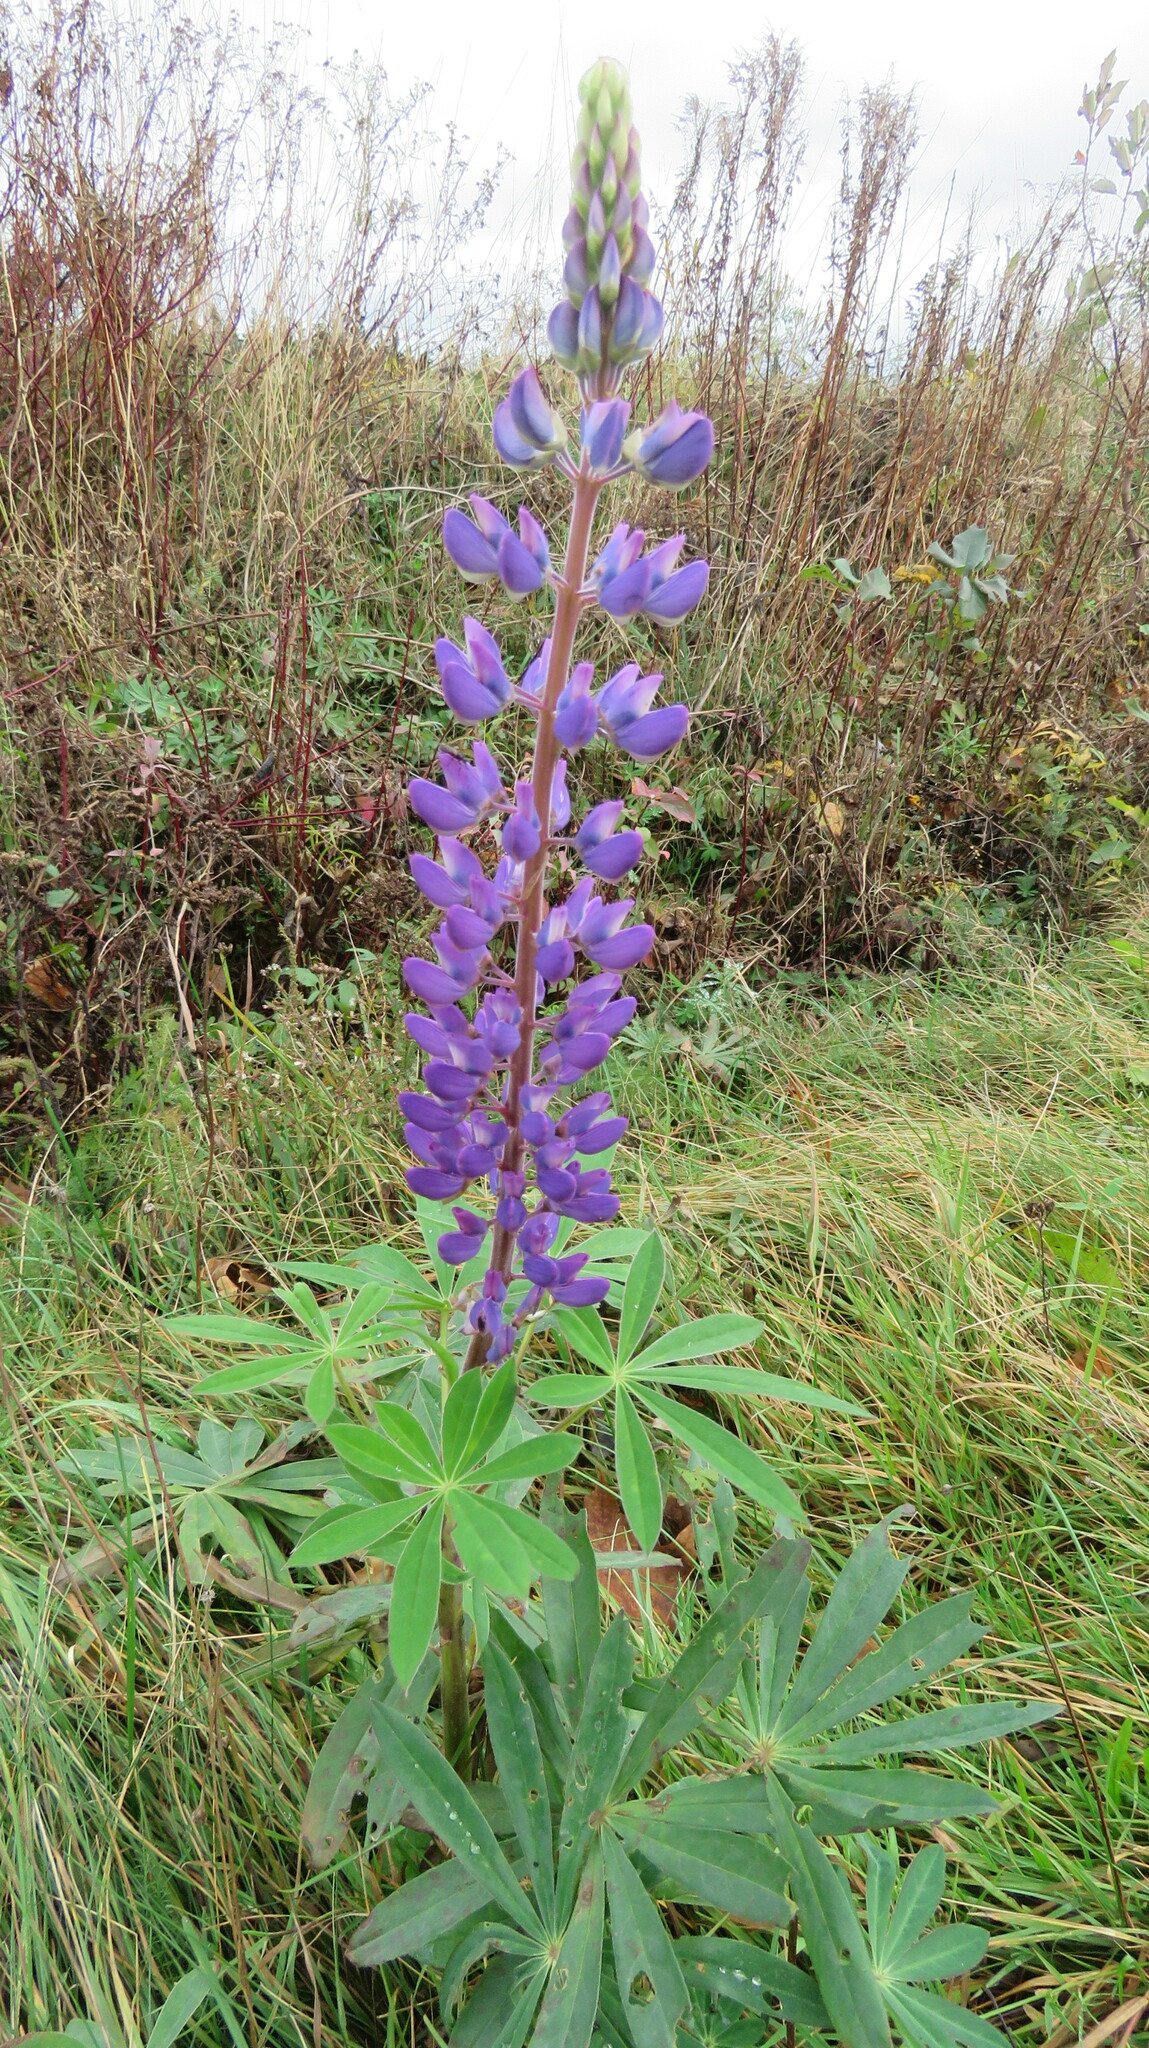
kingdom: Plantae
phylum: Tracheophyta
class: Magnoliopsida
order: Fabales
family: Fabaceae
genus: Lupinus
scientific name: Lupinus polyphyllus
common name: Garden lupin
